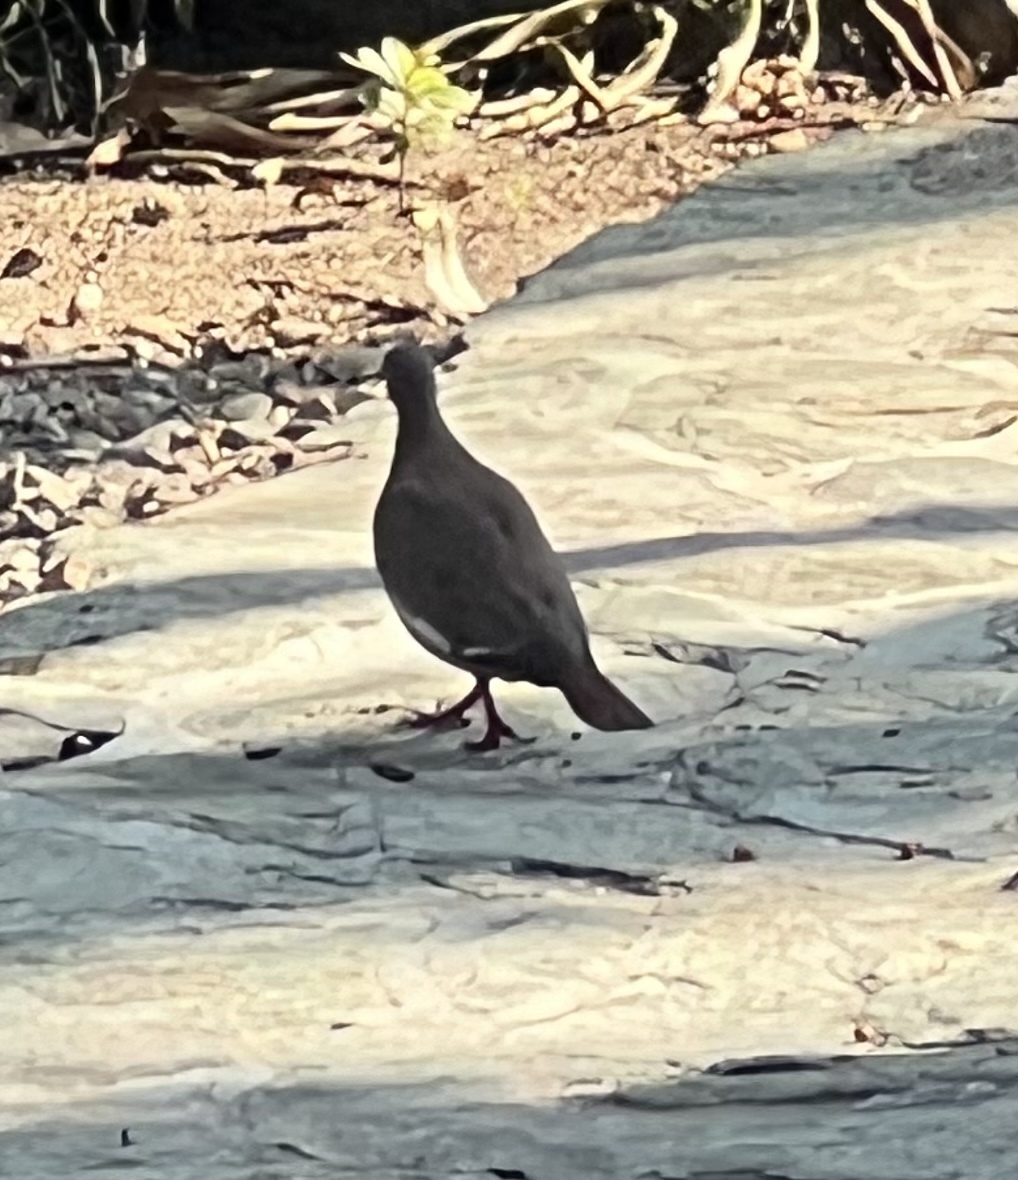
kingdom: Animalia
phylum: Chordata
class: Aves
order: Columbiformes
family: Columbidae
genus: Zenaida
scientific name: Zenaida asiatica
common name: White-winged dove
